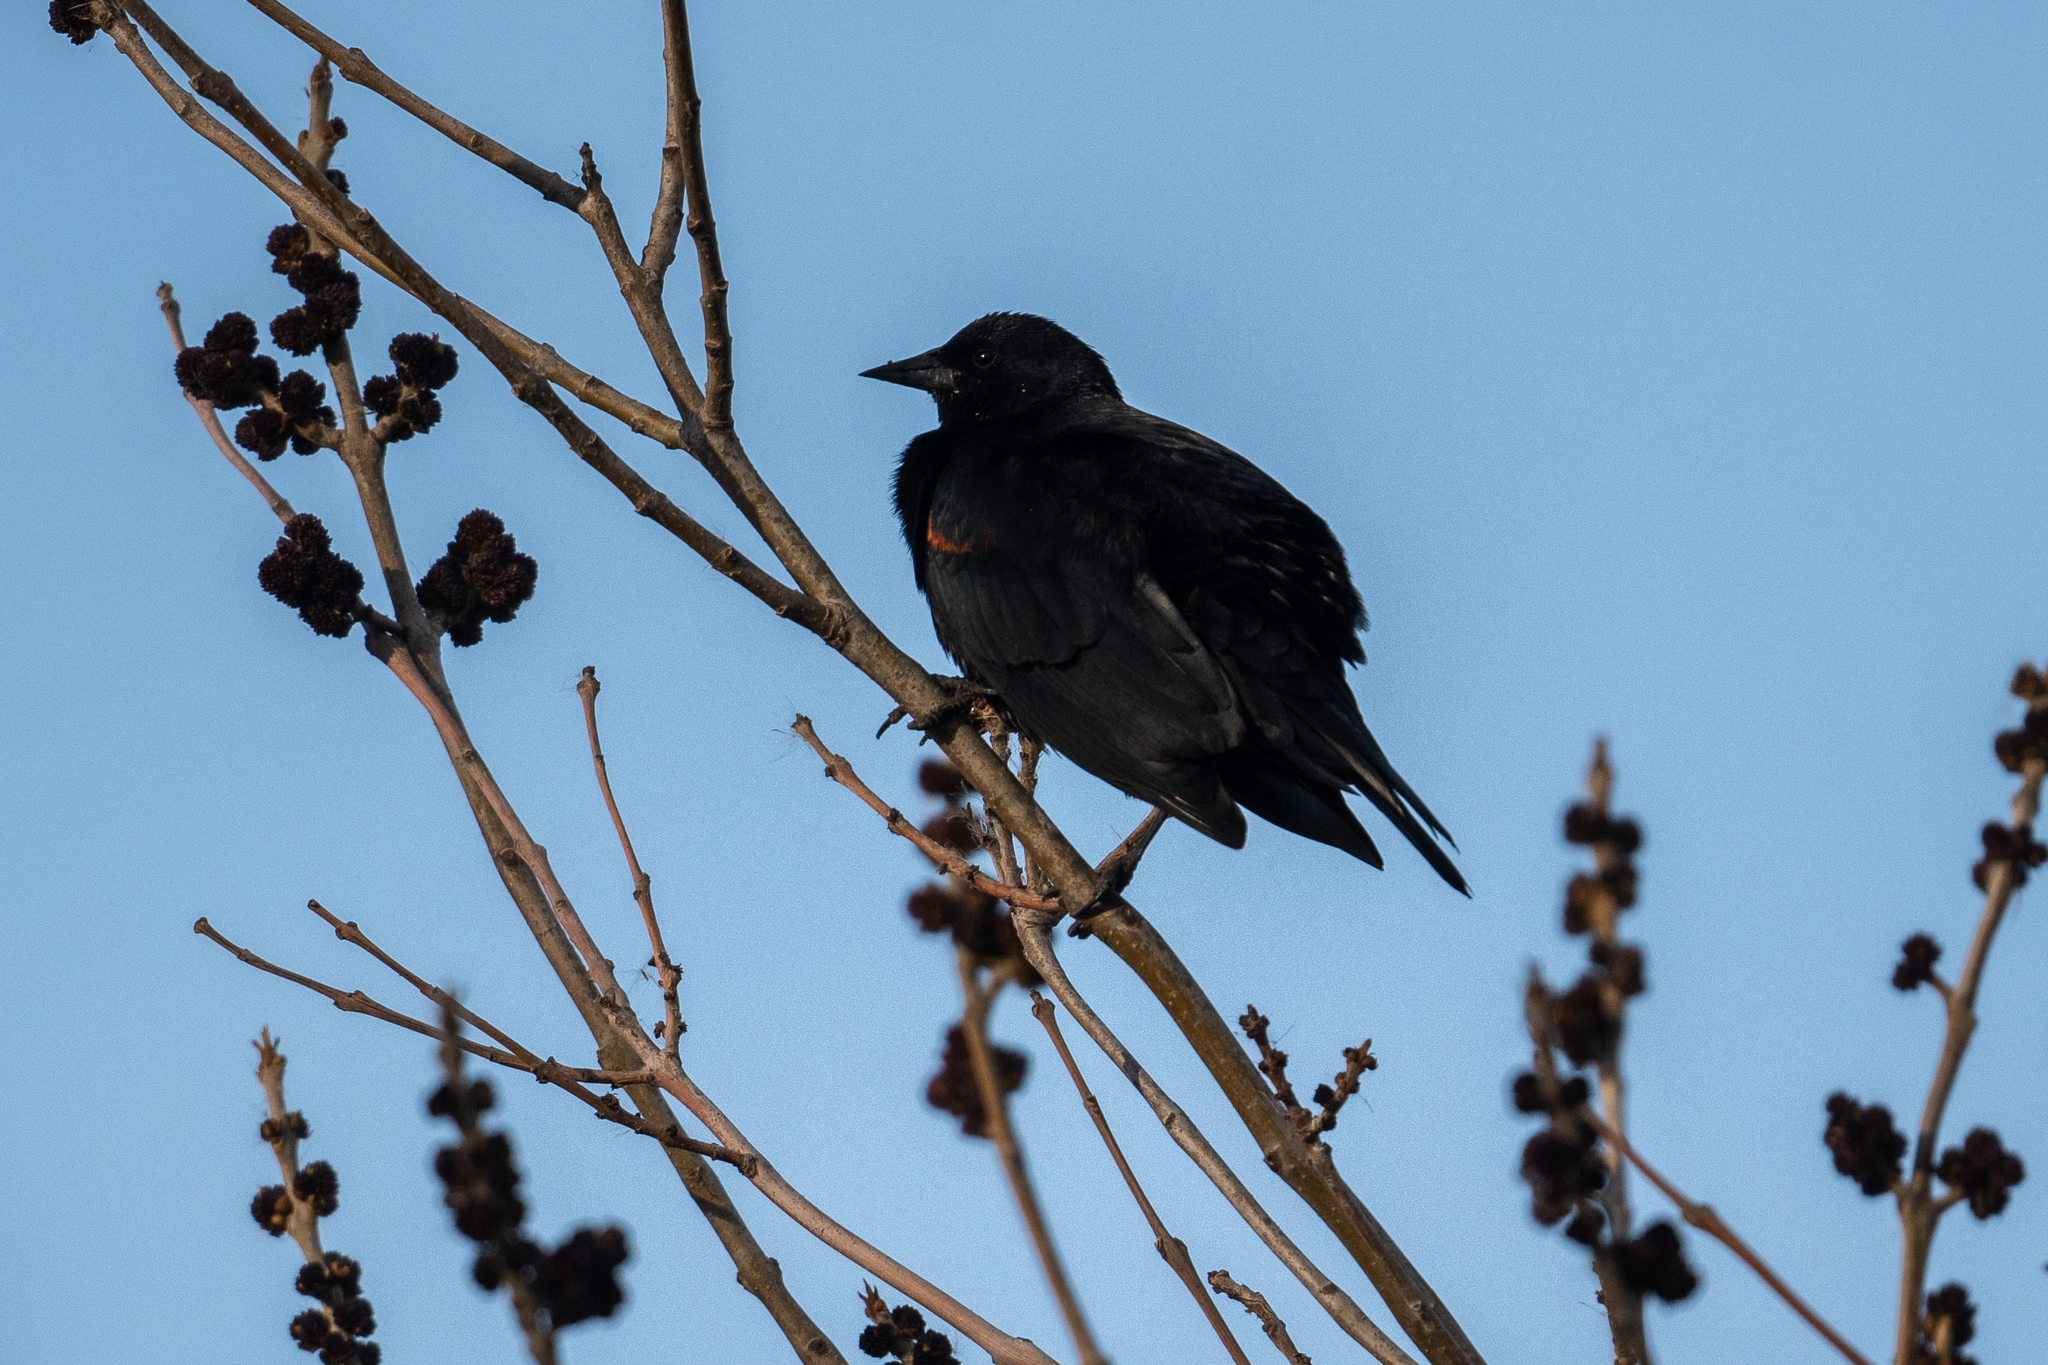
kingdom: Animalia
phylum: Chordata
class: Aves
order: Passeriformes
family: Icteridae
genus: Agelaius
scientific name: Agelaius phoeniceus
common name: Red-winged blackbird
